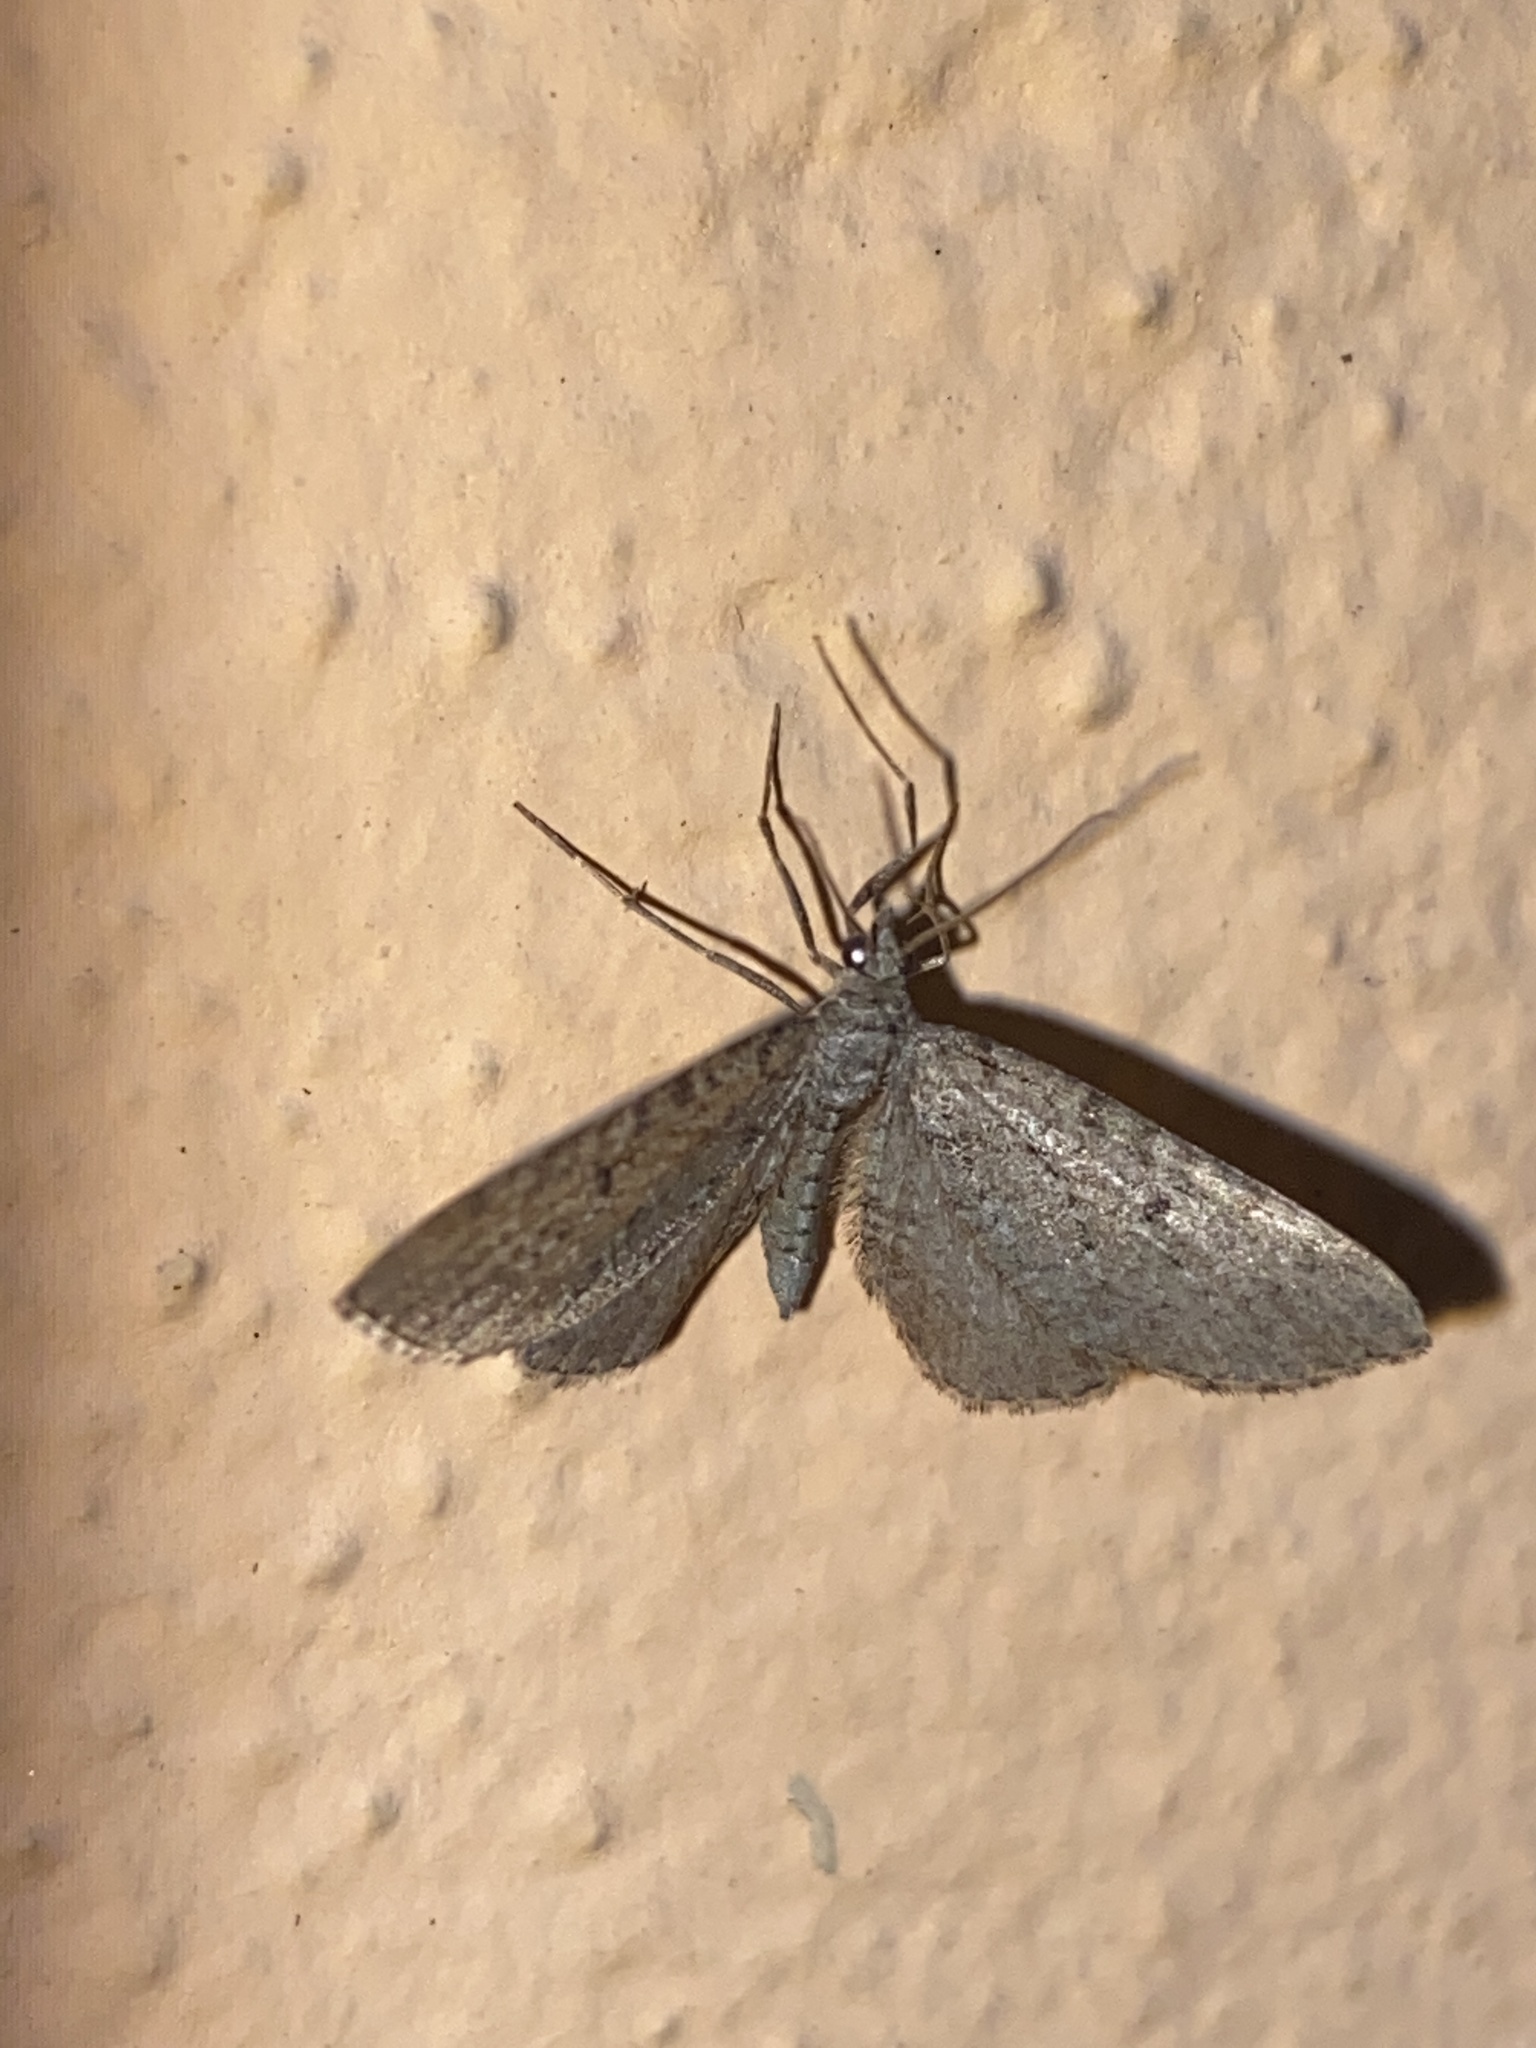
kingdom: Animalia
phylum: Arthropoda
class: Insecta
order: Lepidoptera
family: Geometridae
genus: Eupithecia
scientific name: Eupithecia intricata
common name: Freyers pug
